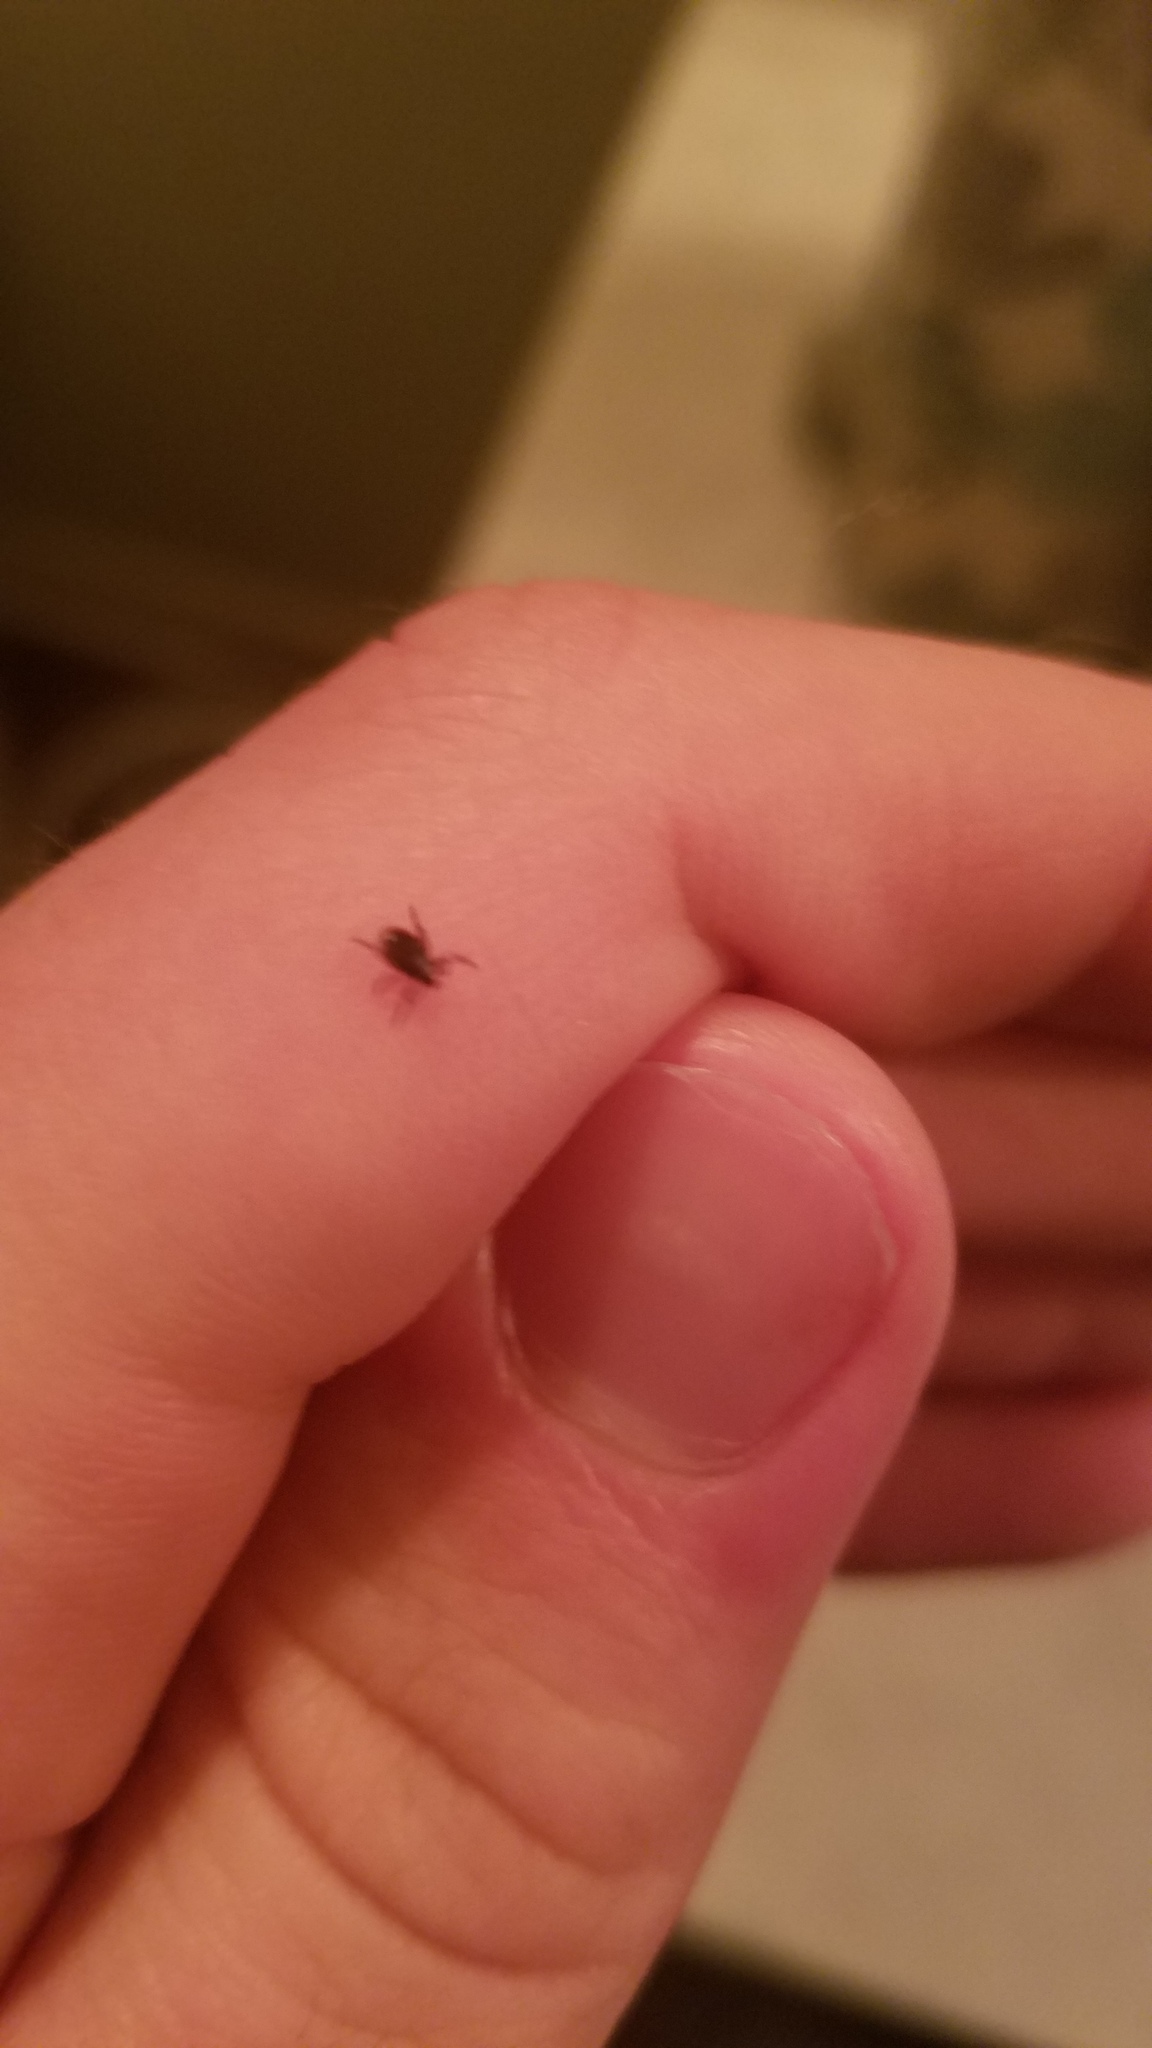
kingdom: Animalia
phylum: Arthropoda
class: Arachnida
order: Ixodida
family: Ixodidae
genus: Ixodes
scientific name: Ixodes scapularis
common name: Black legged tick
